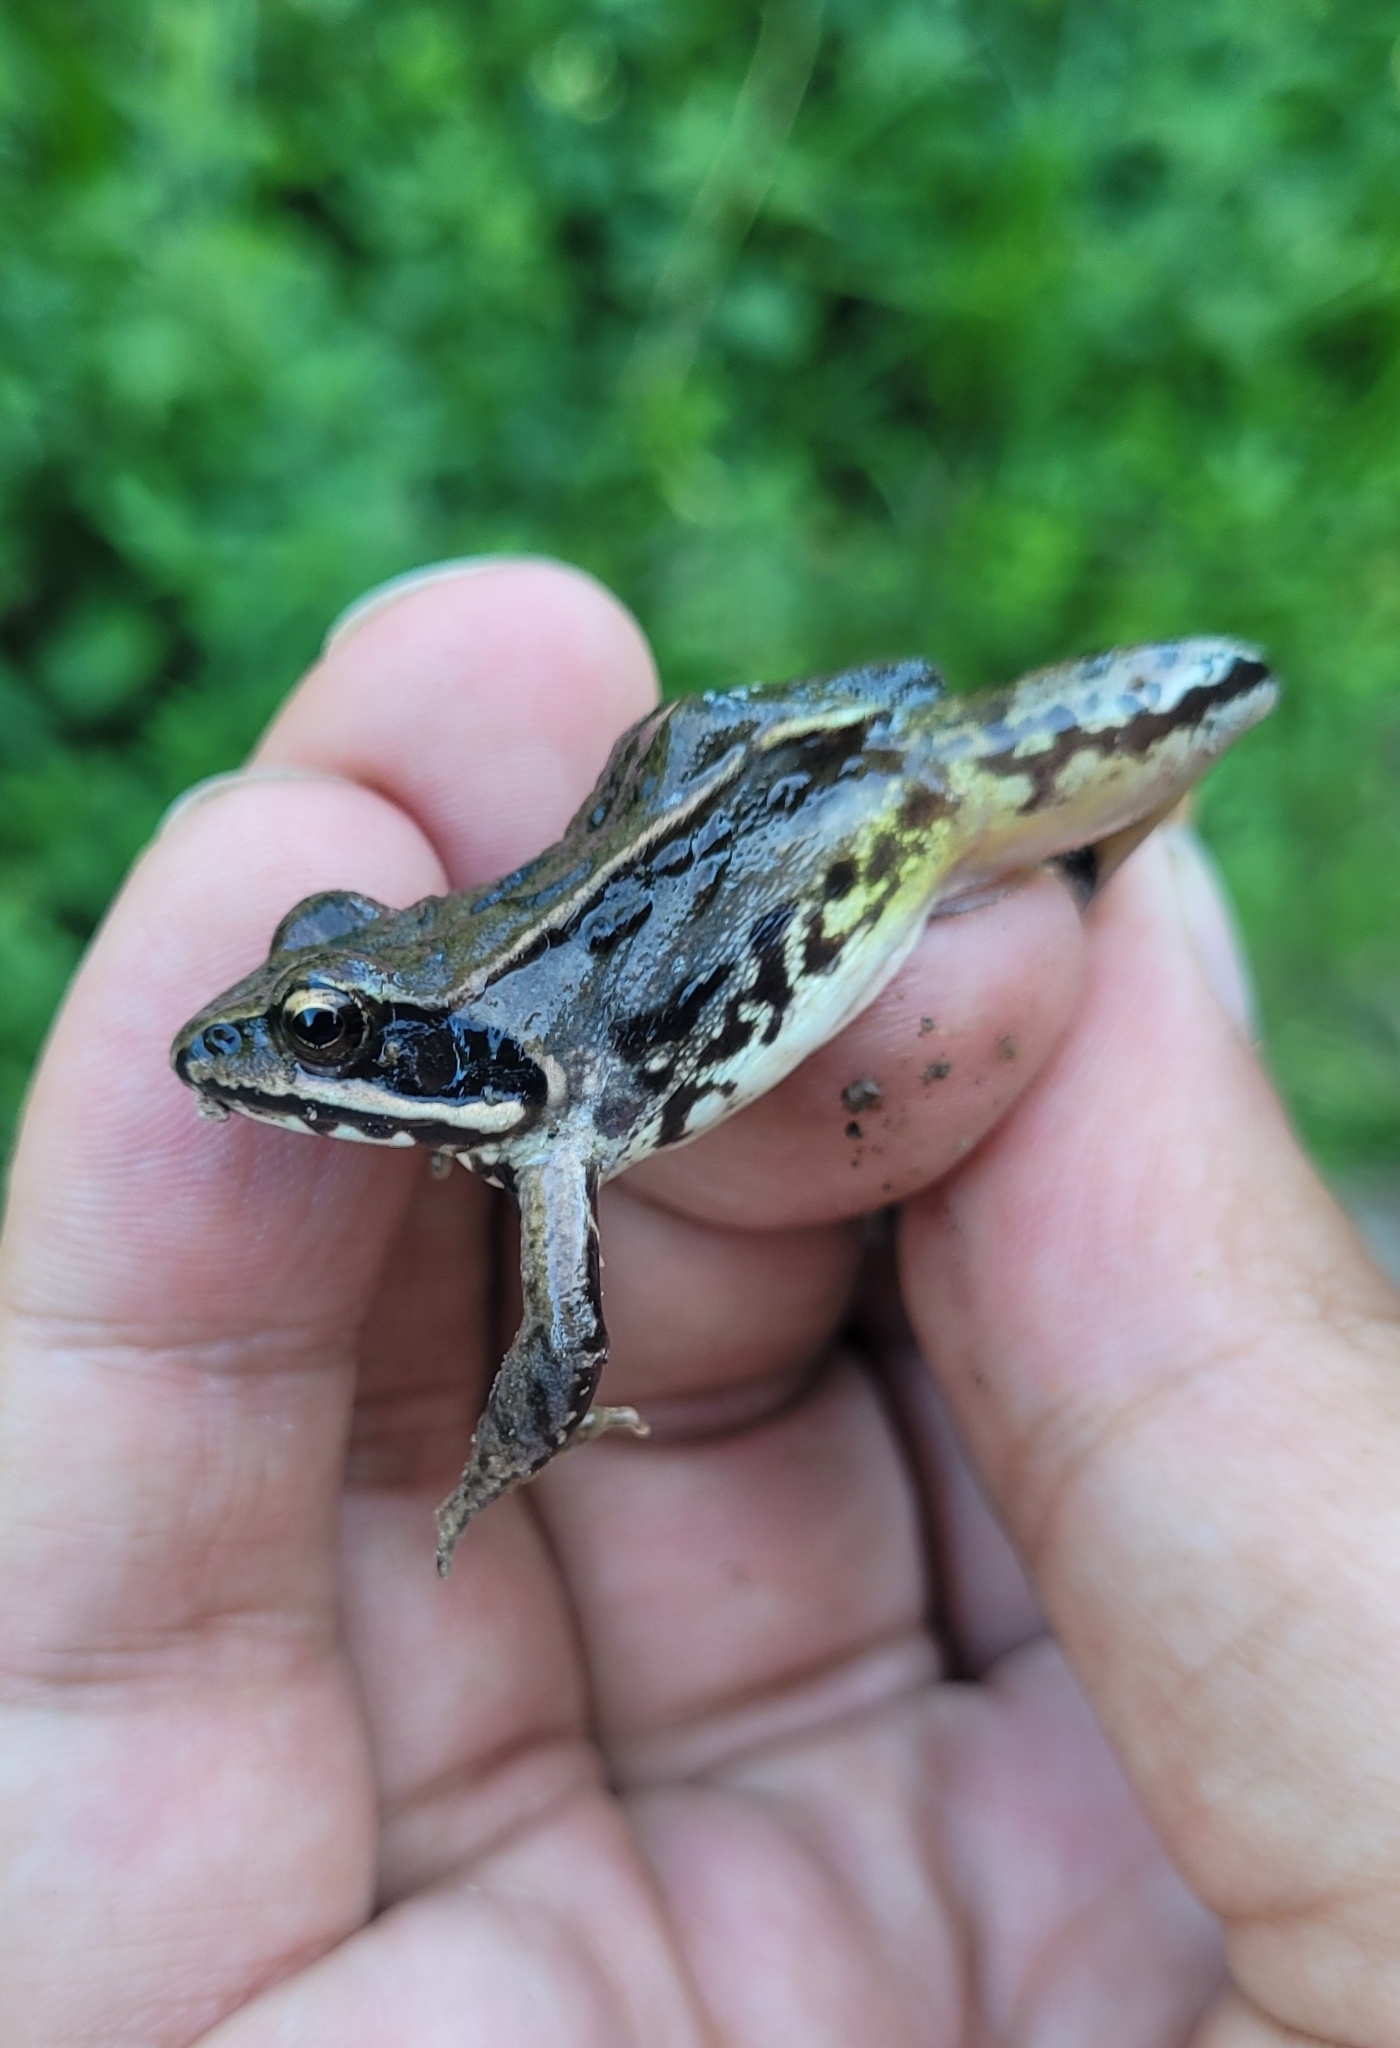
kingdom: Animalia
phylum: Chordata
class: Amphibia
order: Anura
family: Ranidae
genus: Rana
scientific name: Rana arvalis
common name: Moor frog
